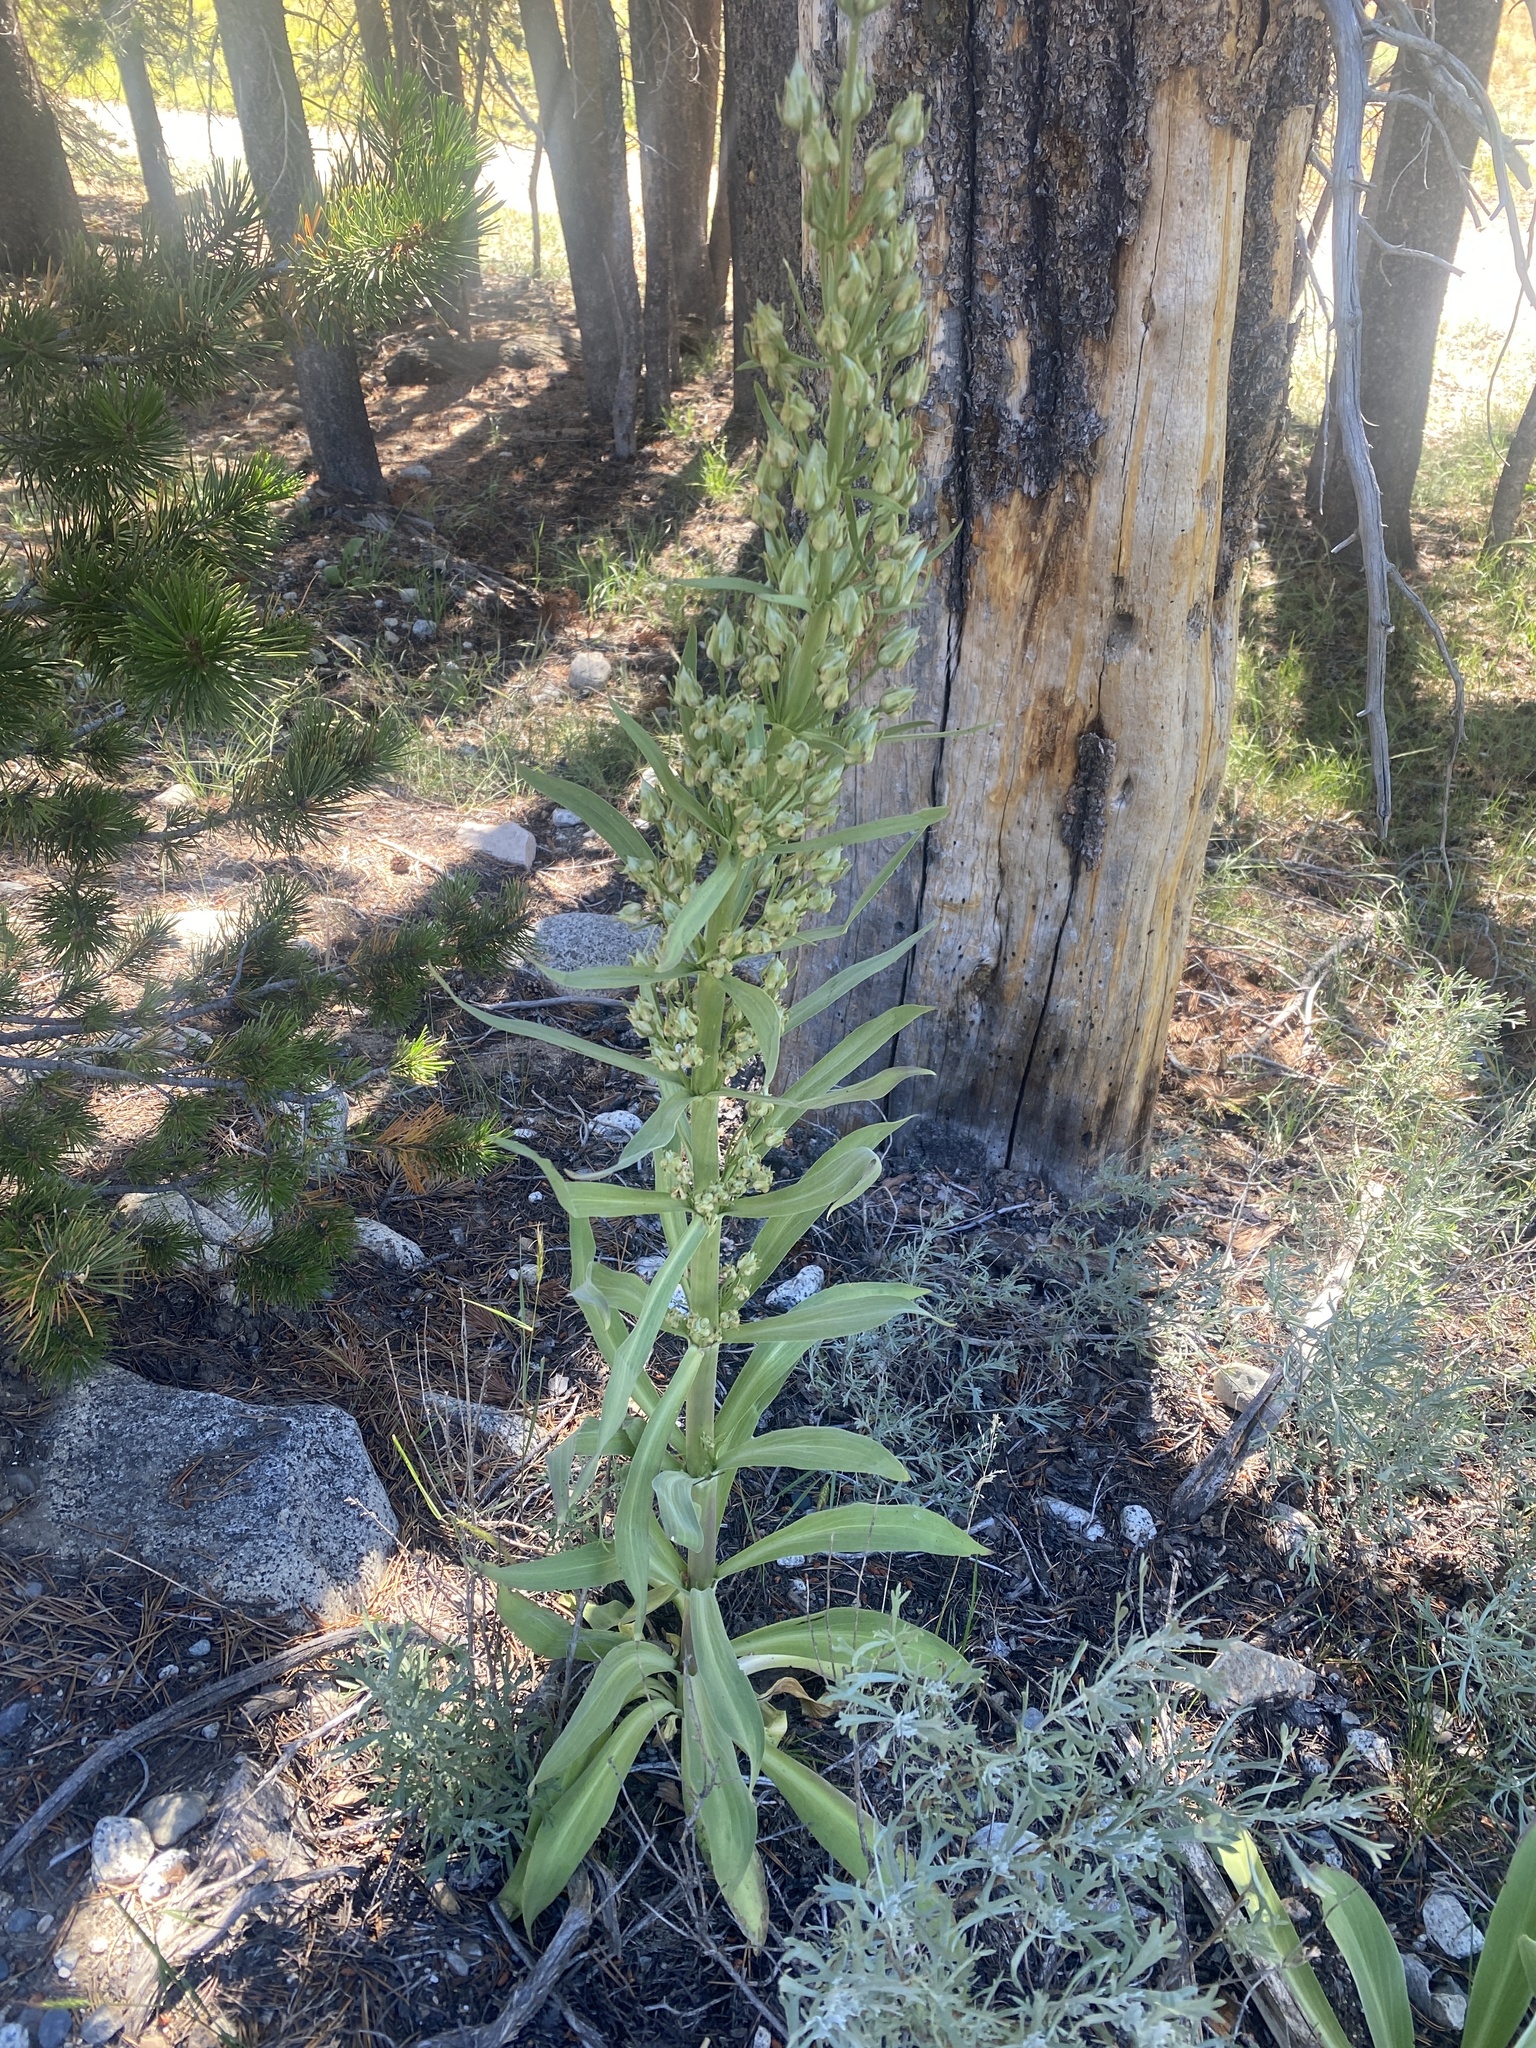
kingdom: Plantae
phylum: Tracheophyta
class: Magnoliopsida
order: Gentianales
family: Gentianaceae
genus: Frasera
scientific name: Frasera speciosa
